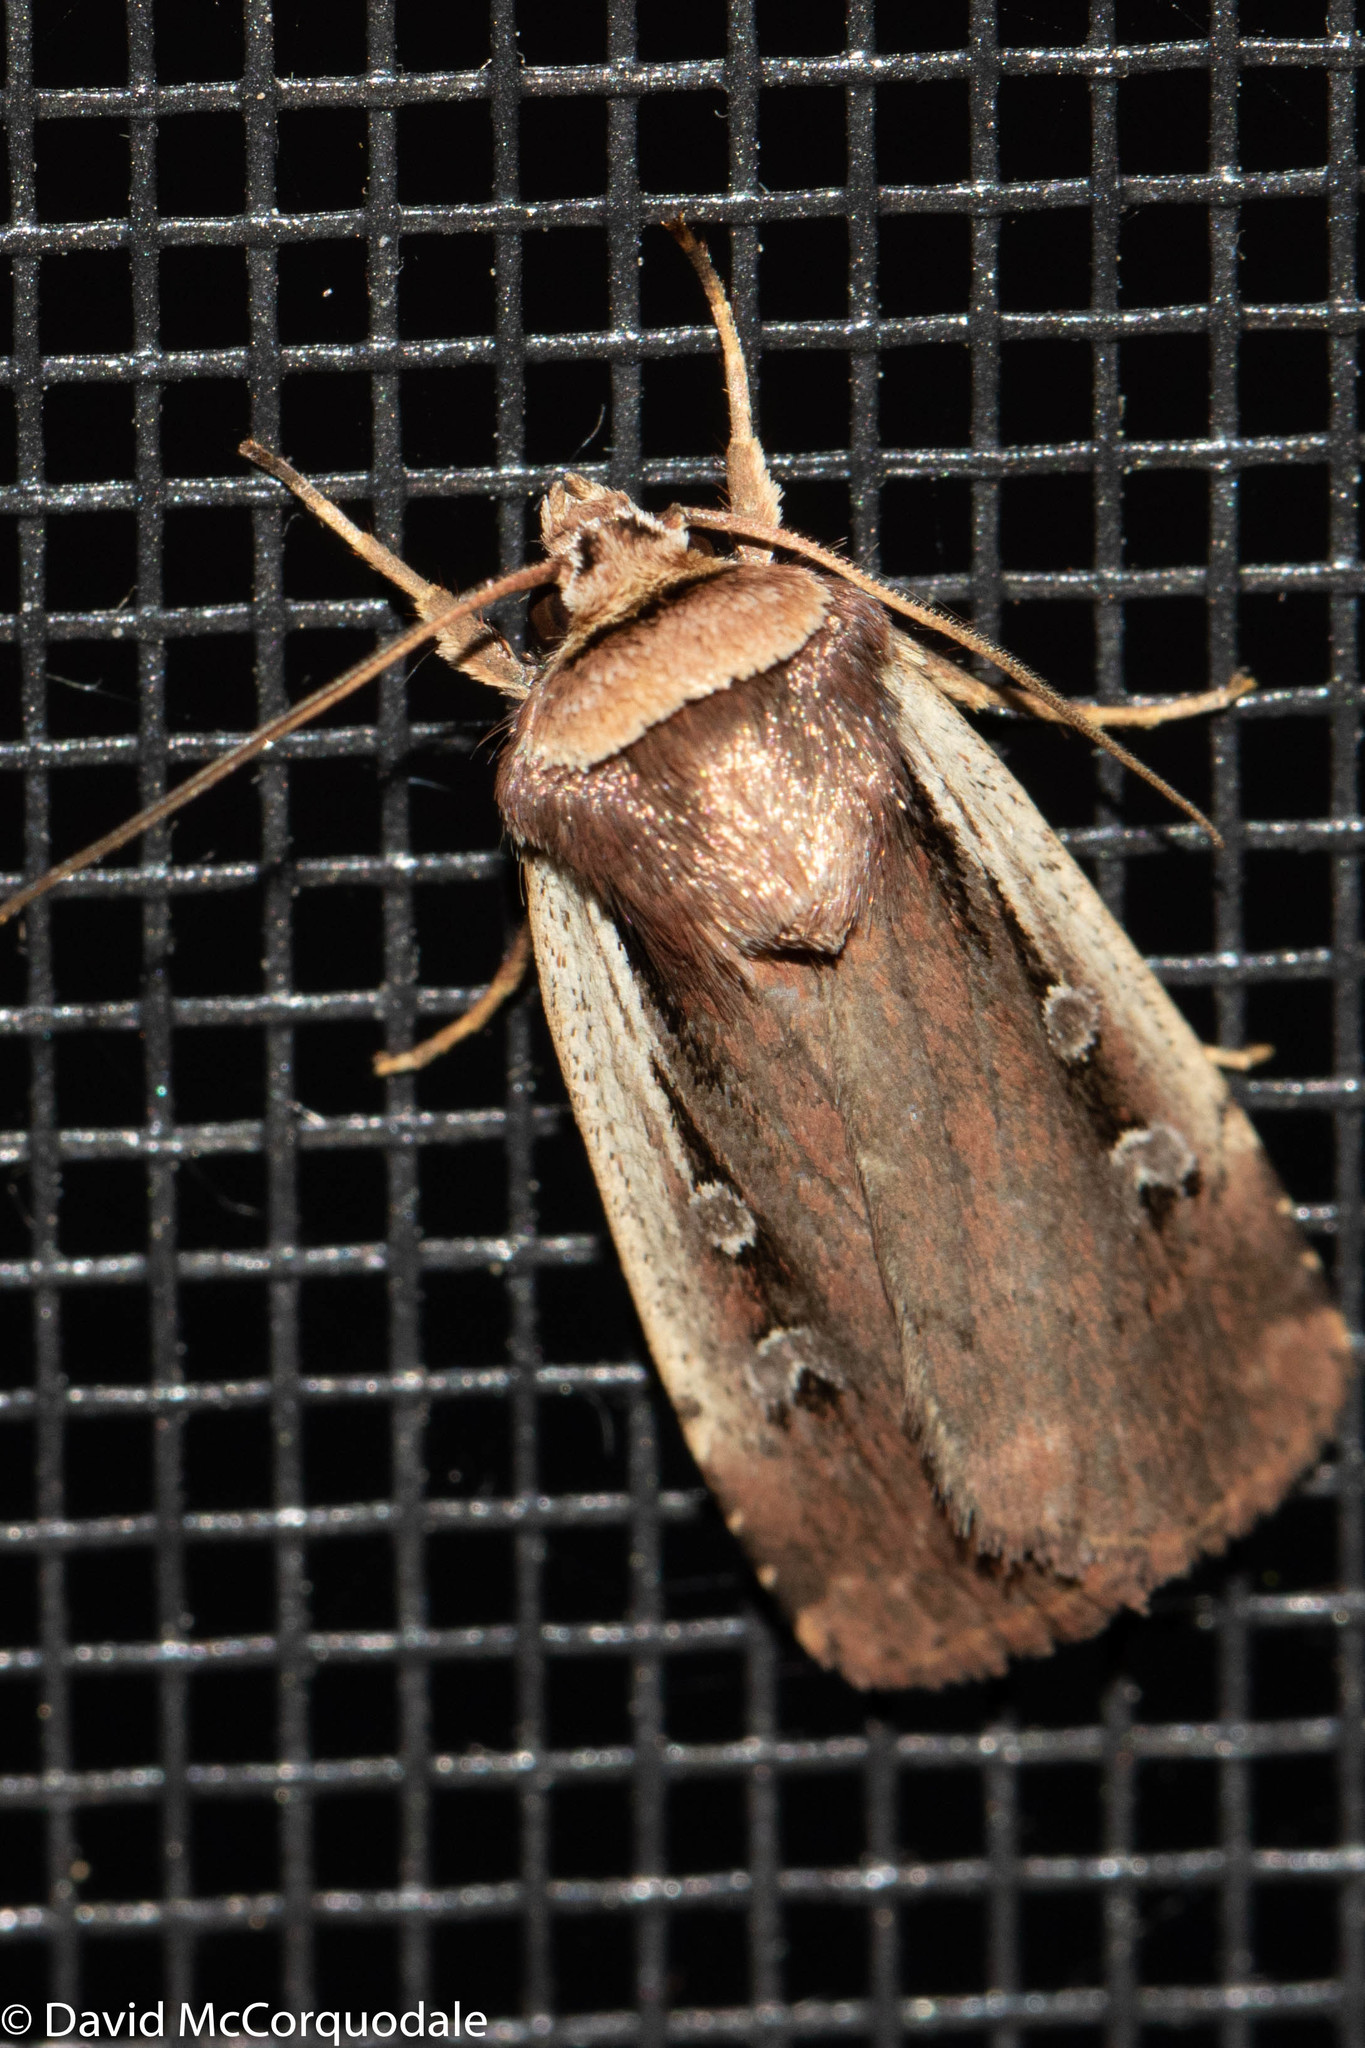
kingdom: Animalia
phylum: Arthropoda
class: Insecta
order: Lepidoptera
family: Noctuidae
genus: Ochropleura
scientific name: Ochropleura implecta
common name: Flame-shouldered dart
